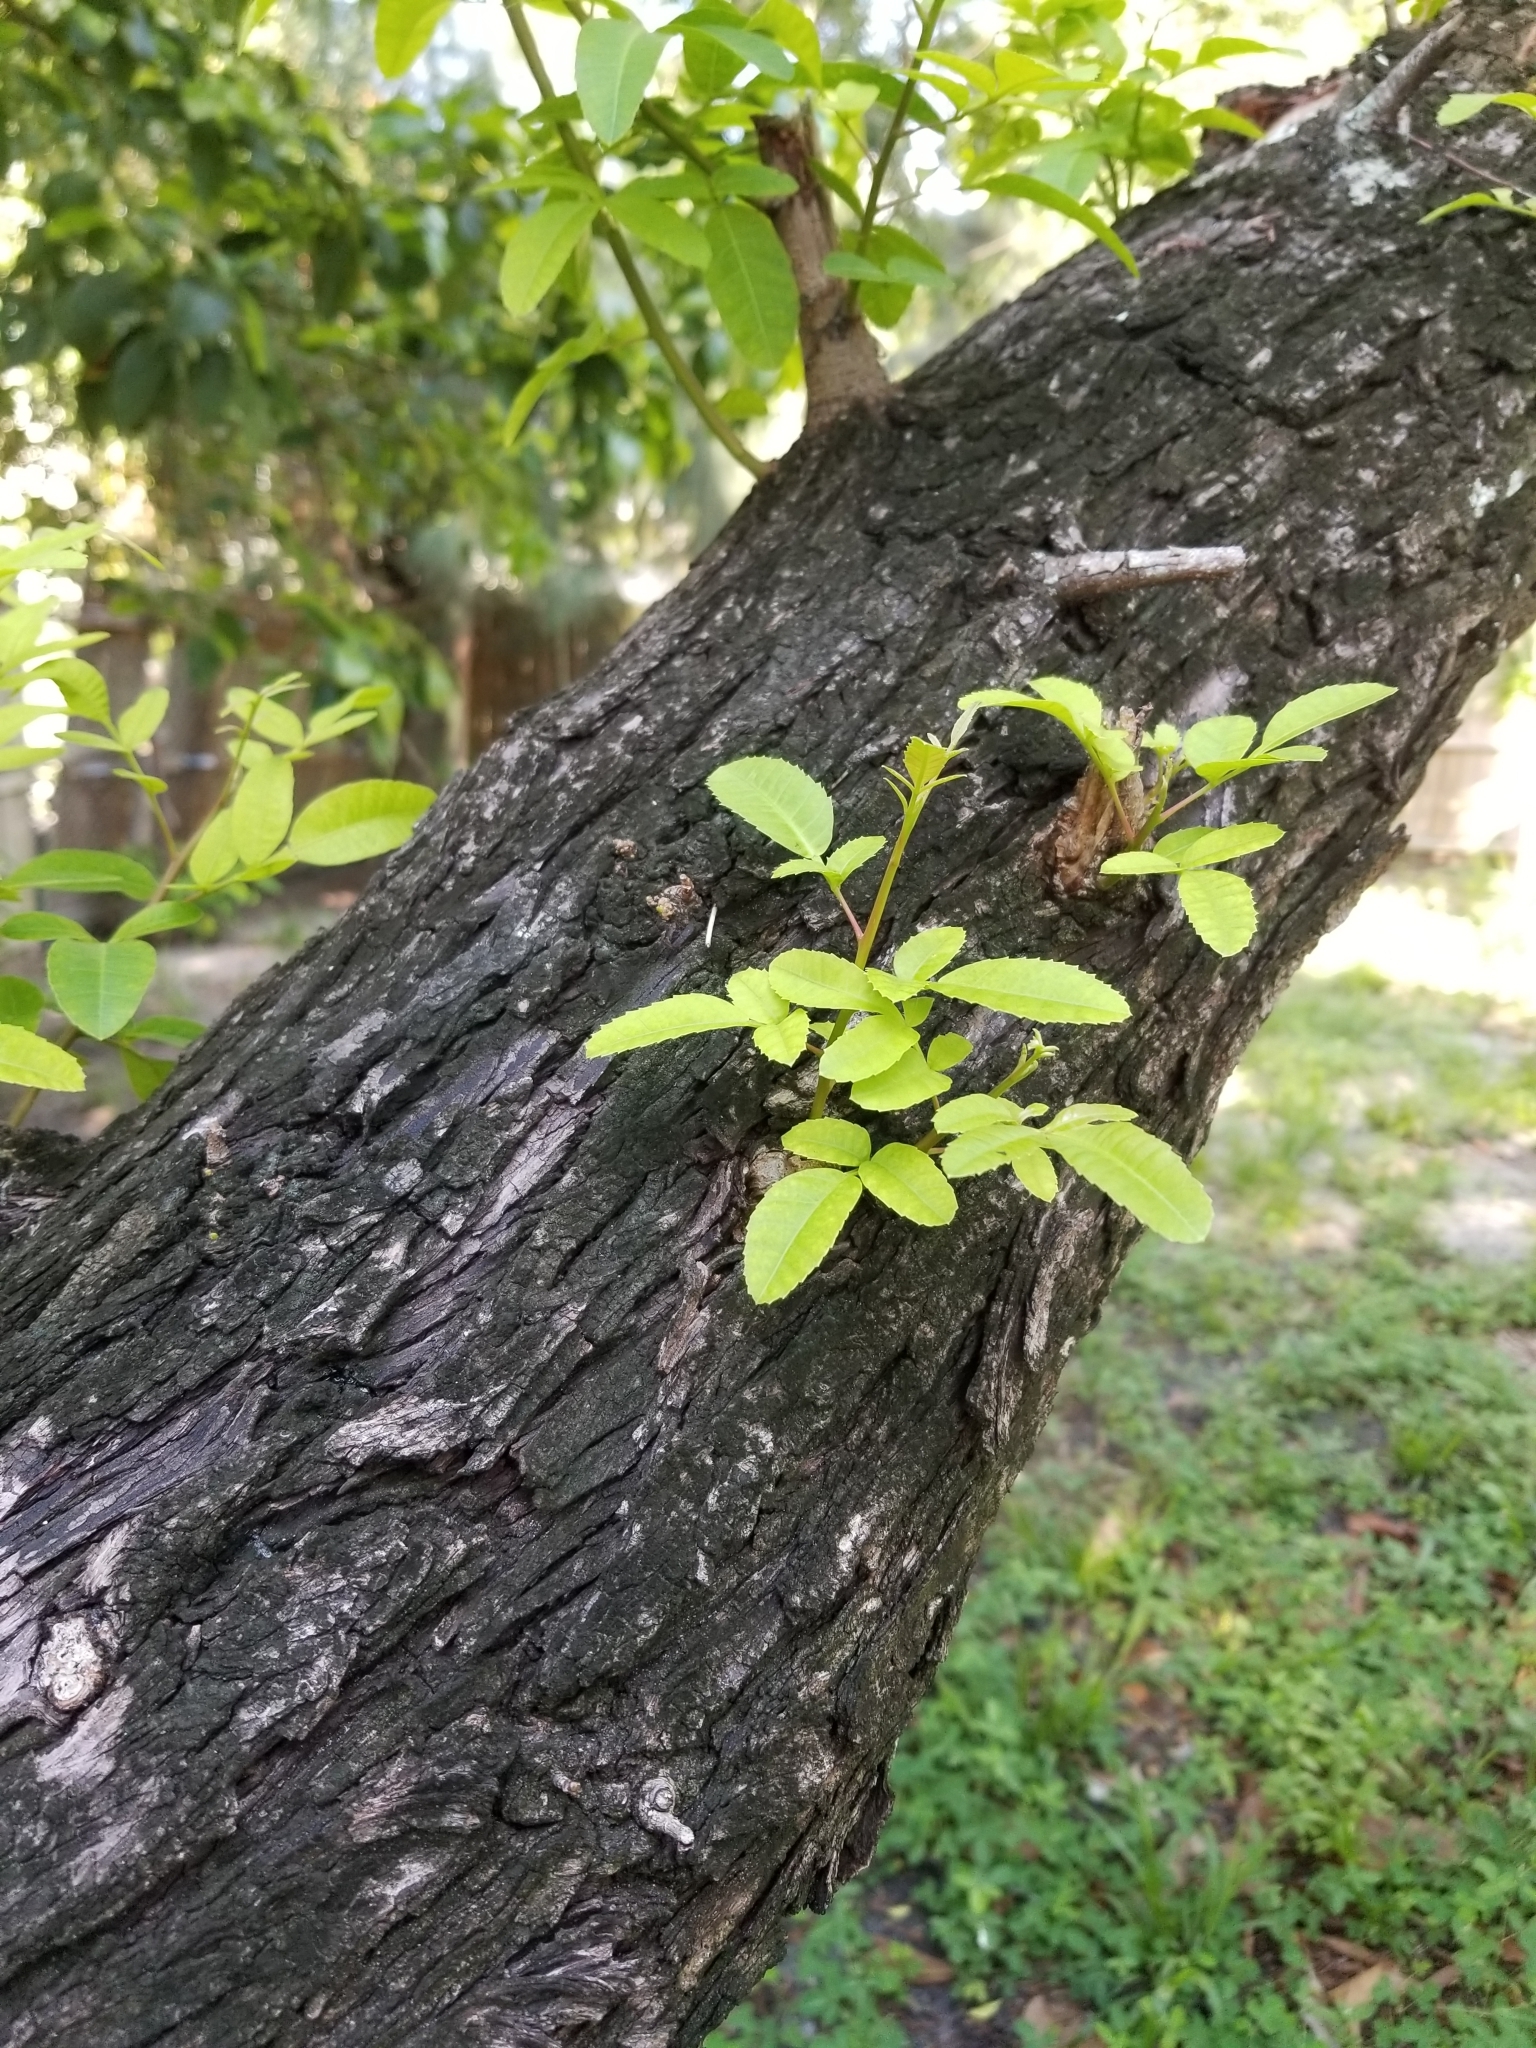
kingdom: Plantae
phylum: Tracheophyta
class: Magnoliopsida
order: Sapindales
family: Anacardiaceae
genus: Schinus
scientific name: Schinus terebinthifolia
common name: Brazilian peppertree
